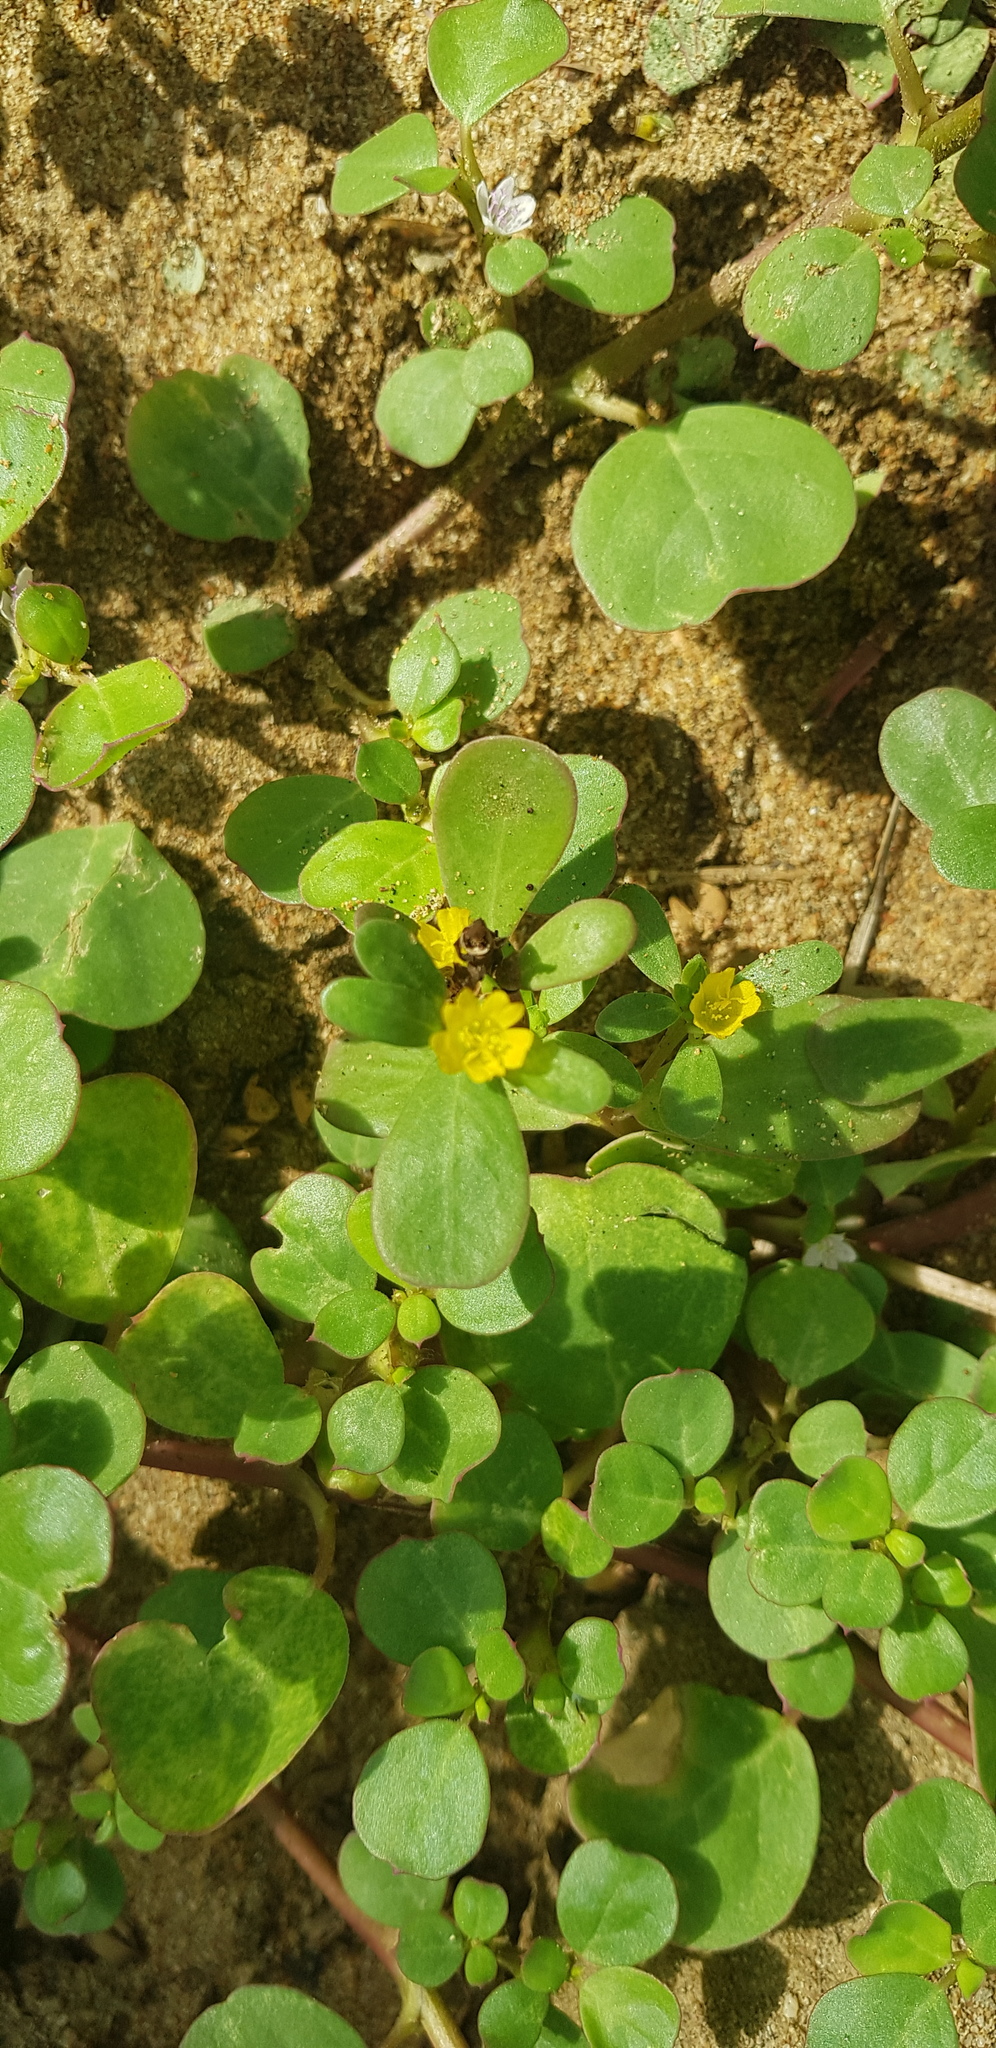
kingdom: Plantae
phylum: Tracheophyta
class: Magnoliopsida
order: Caryophyllales
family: Portulacaceae
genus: Portulaca
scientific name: Portulaca oleracea
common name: Common purslane
